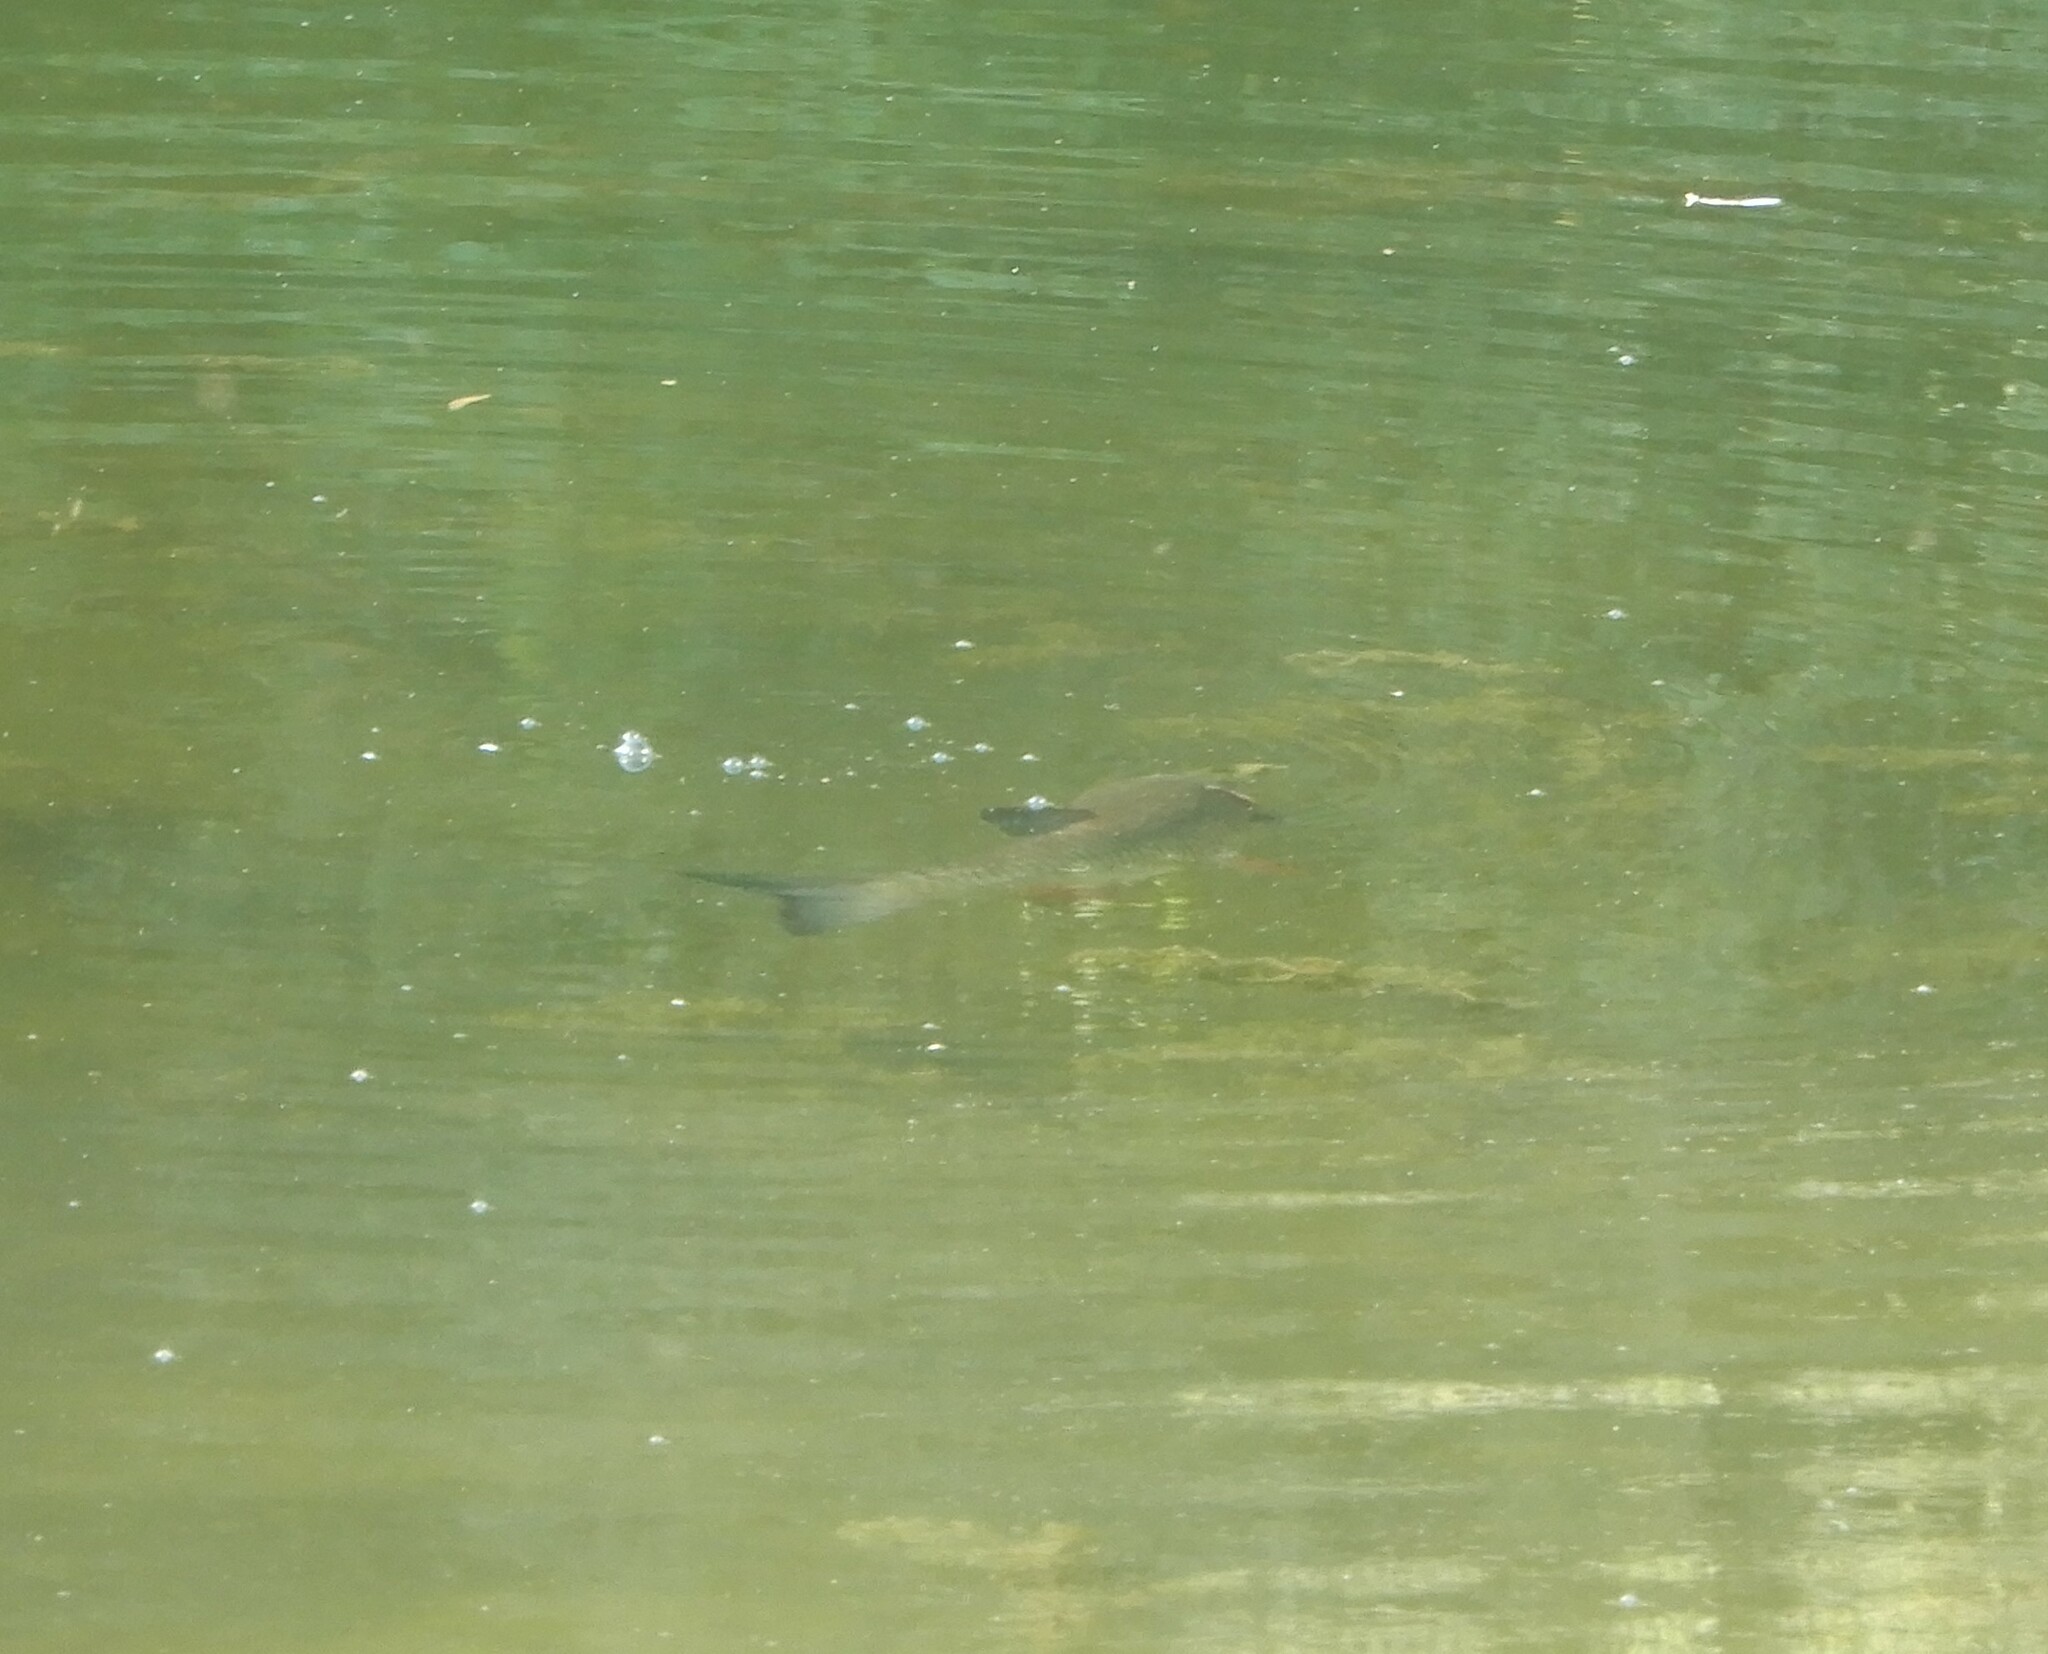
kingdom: Animalia
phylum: Chordata
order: Cypriniformes
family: Cyprinidae
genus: Squalius
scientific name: Squalius cephalus
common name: Chub
